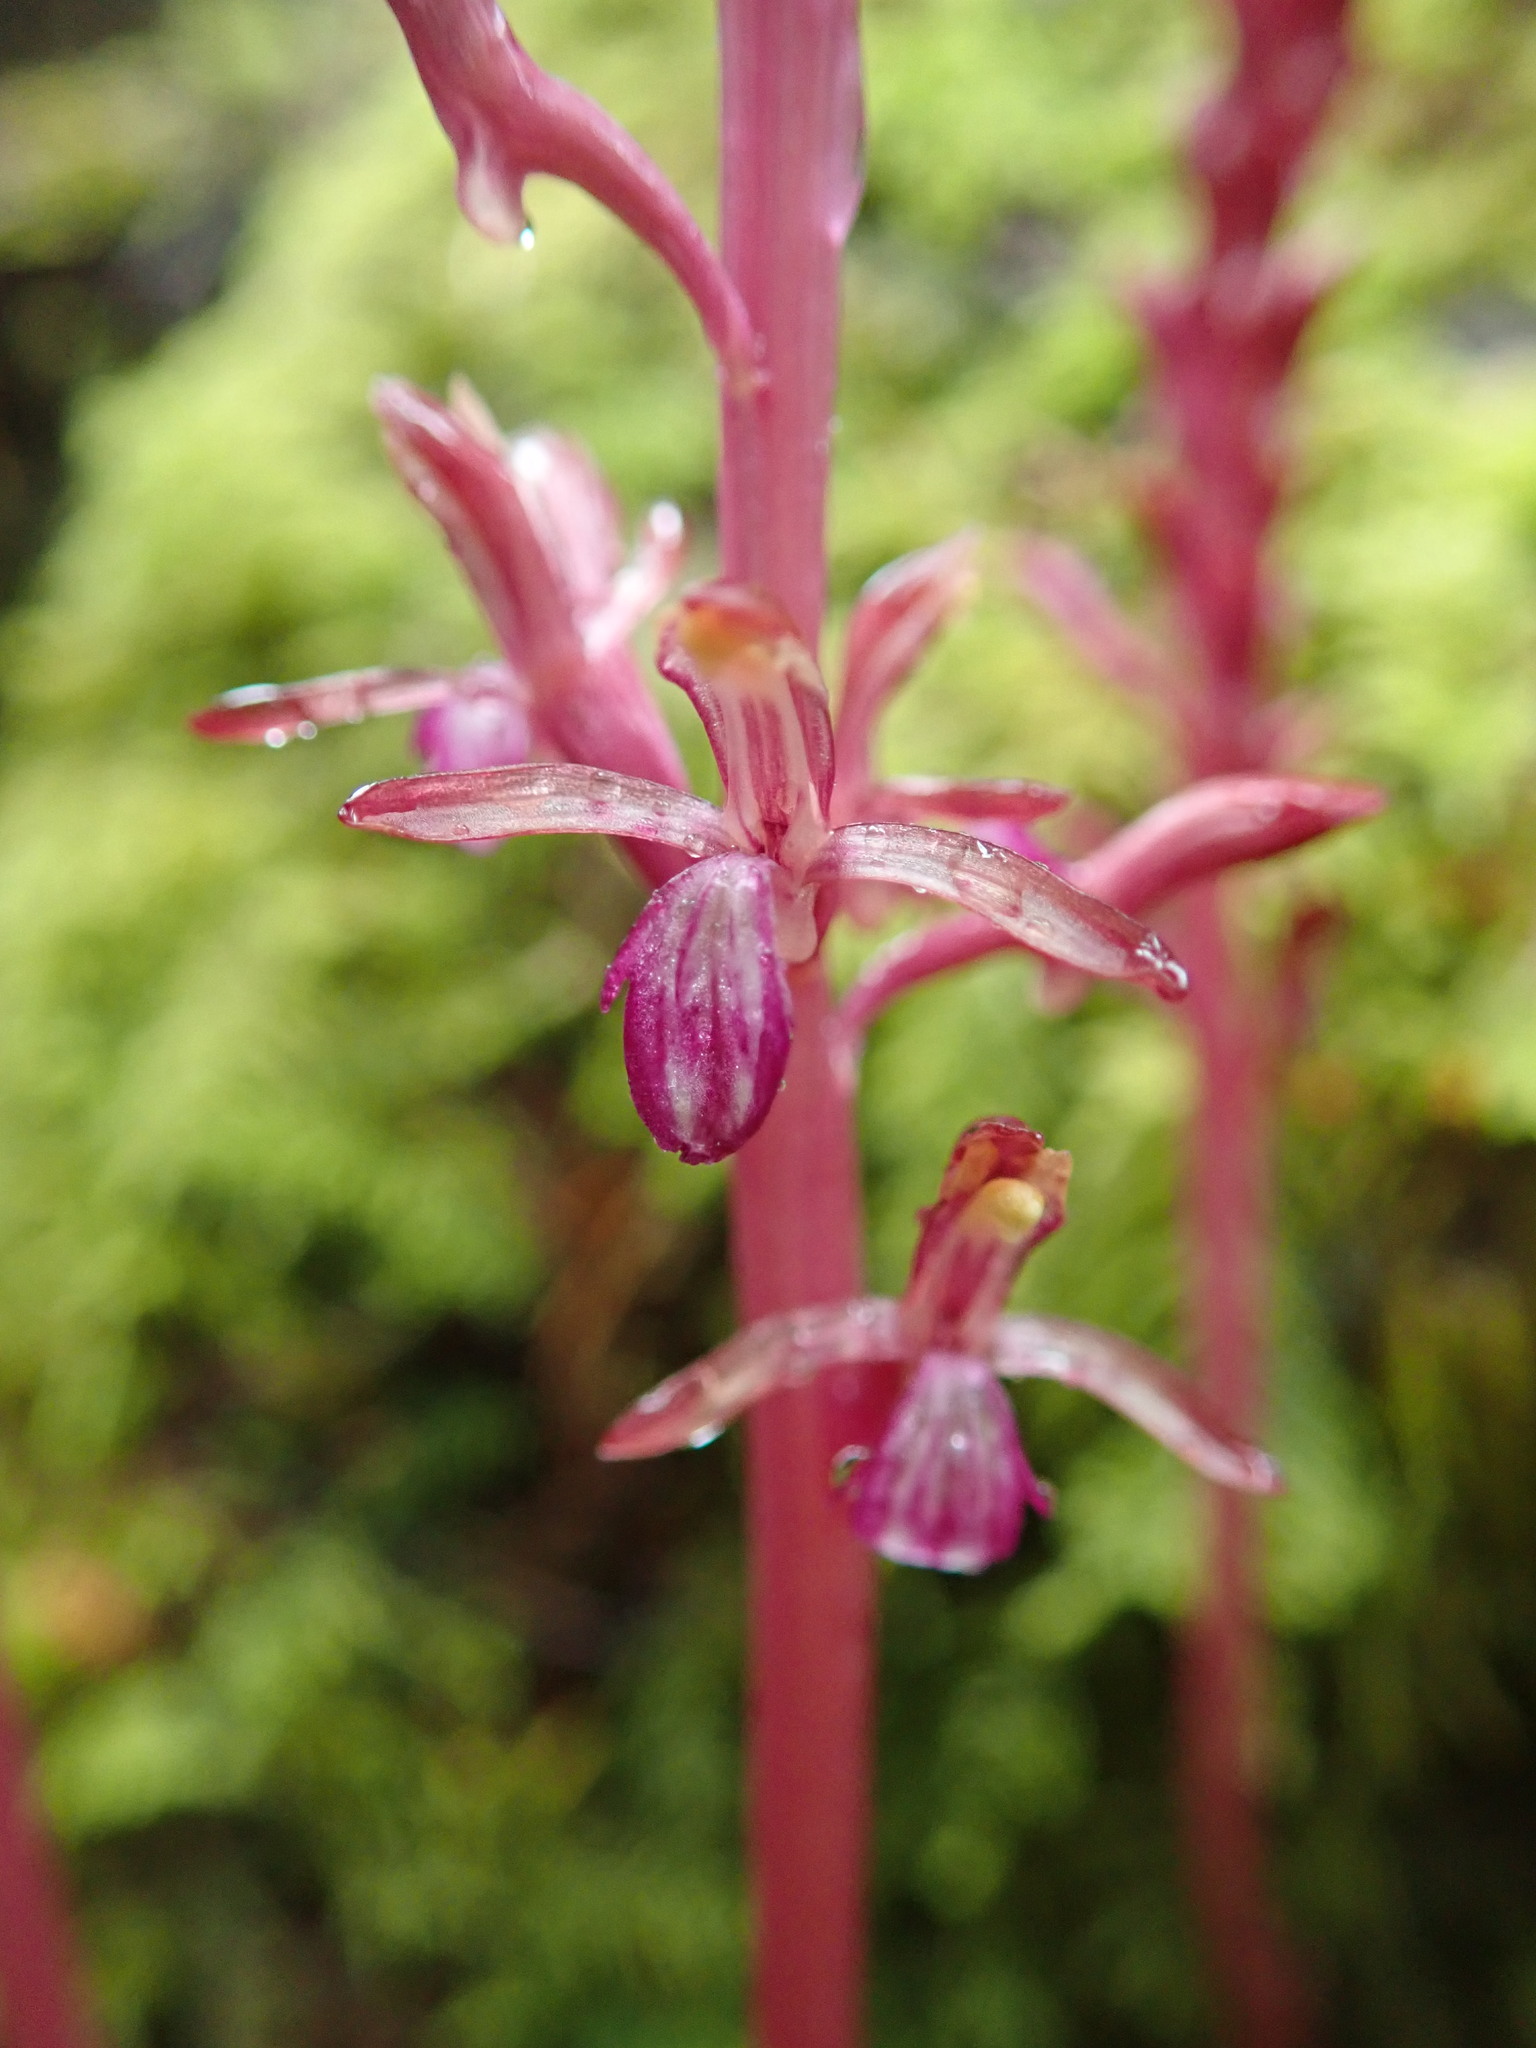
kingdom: Plantae
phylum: Tracheophyta
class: Liliopsida
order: Asparagales
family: Orchidaceae
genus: Corallorhiza
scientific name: Corallorhiza mertensiana
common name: Pacific coralroot
